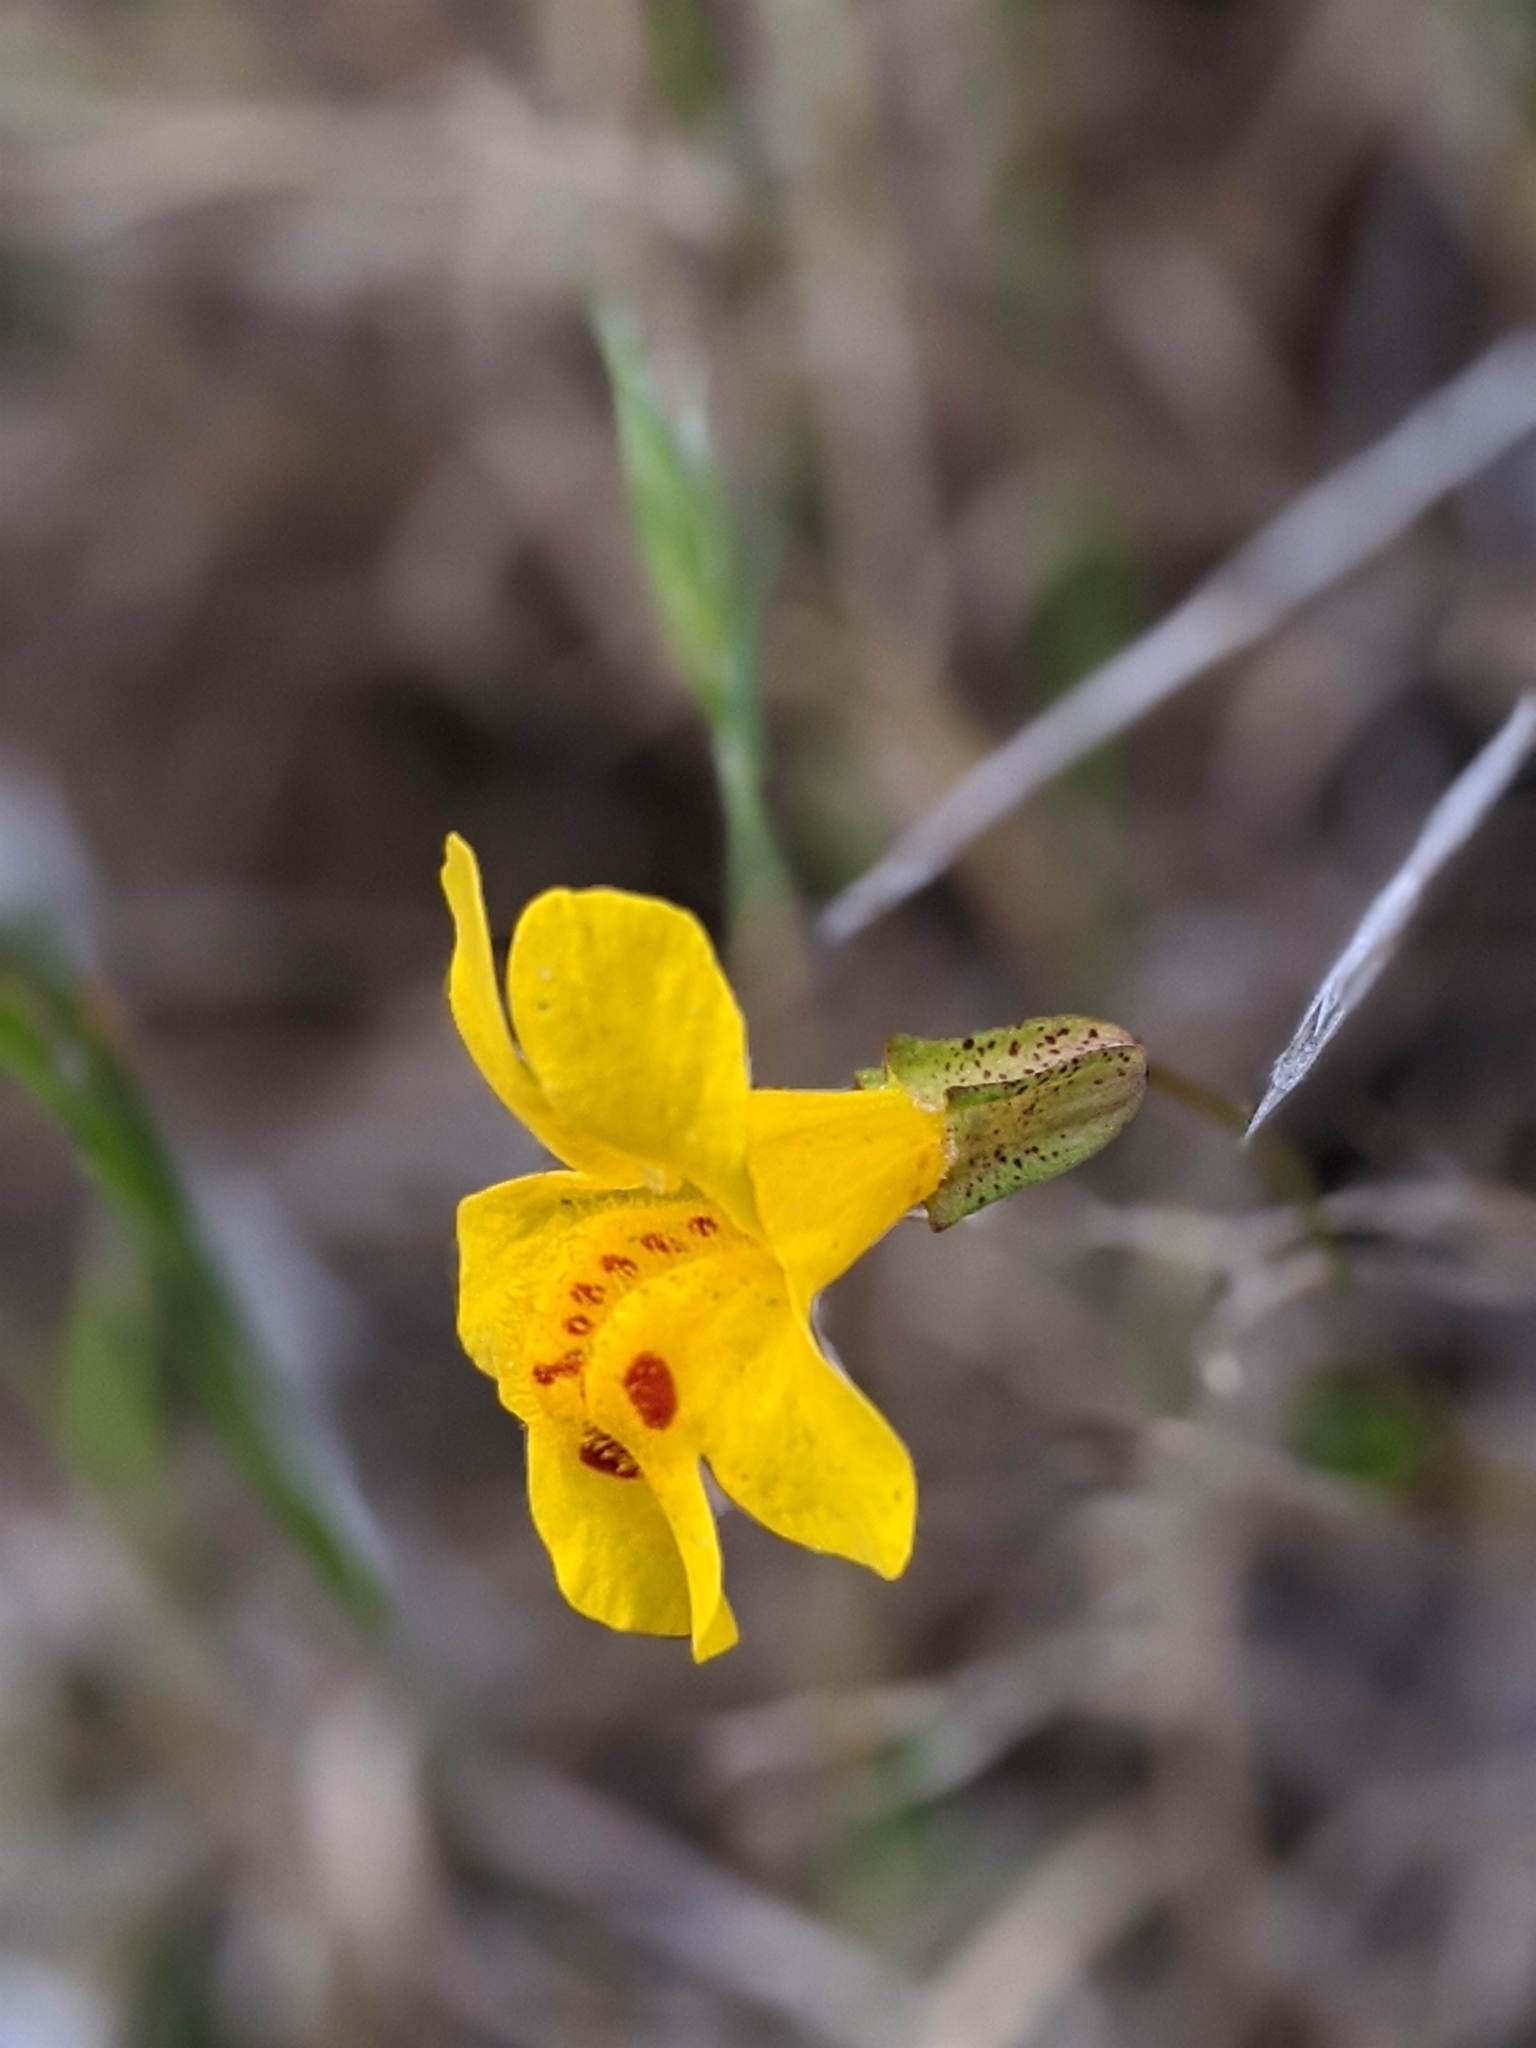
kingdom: Plantae
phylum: Tracheophyta
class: Magnoliopsida
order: Lamiales
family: Phrymaceae
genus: Erythranthe
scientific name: Erythranthe guttata
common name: Monkeyflower
